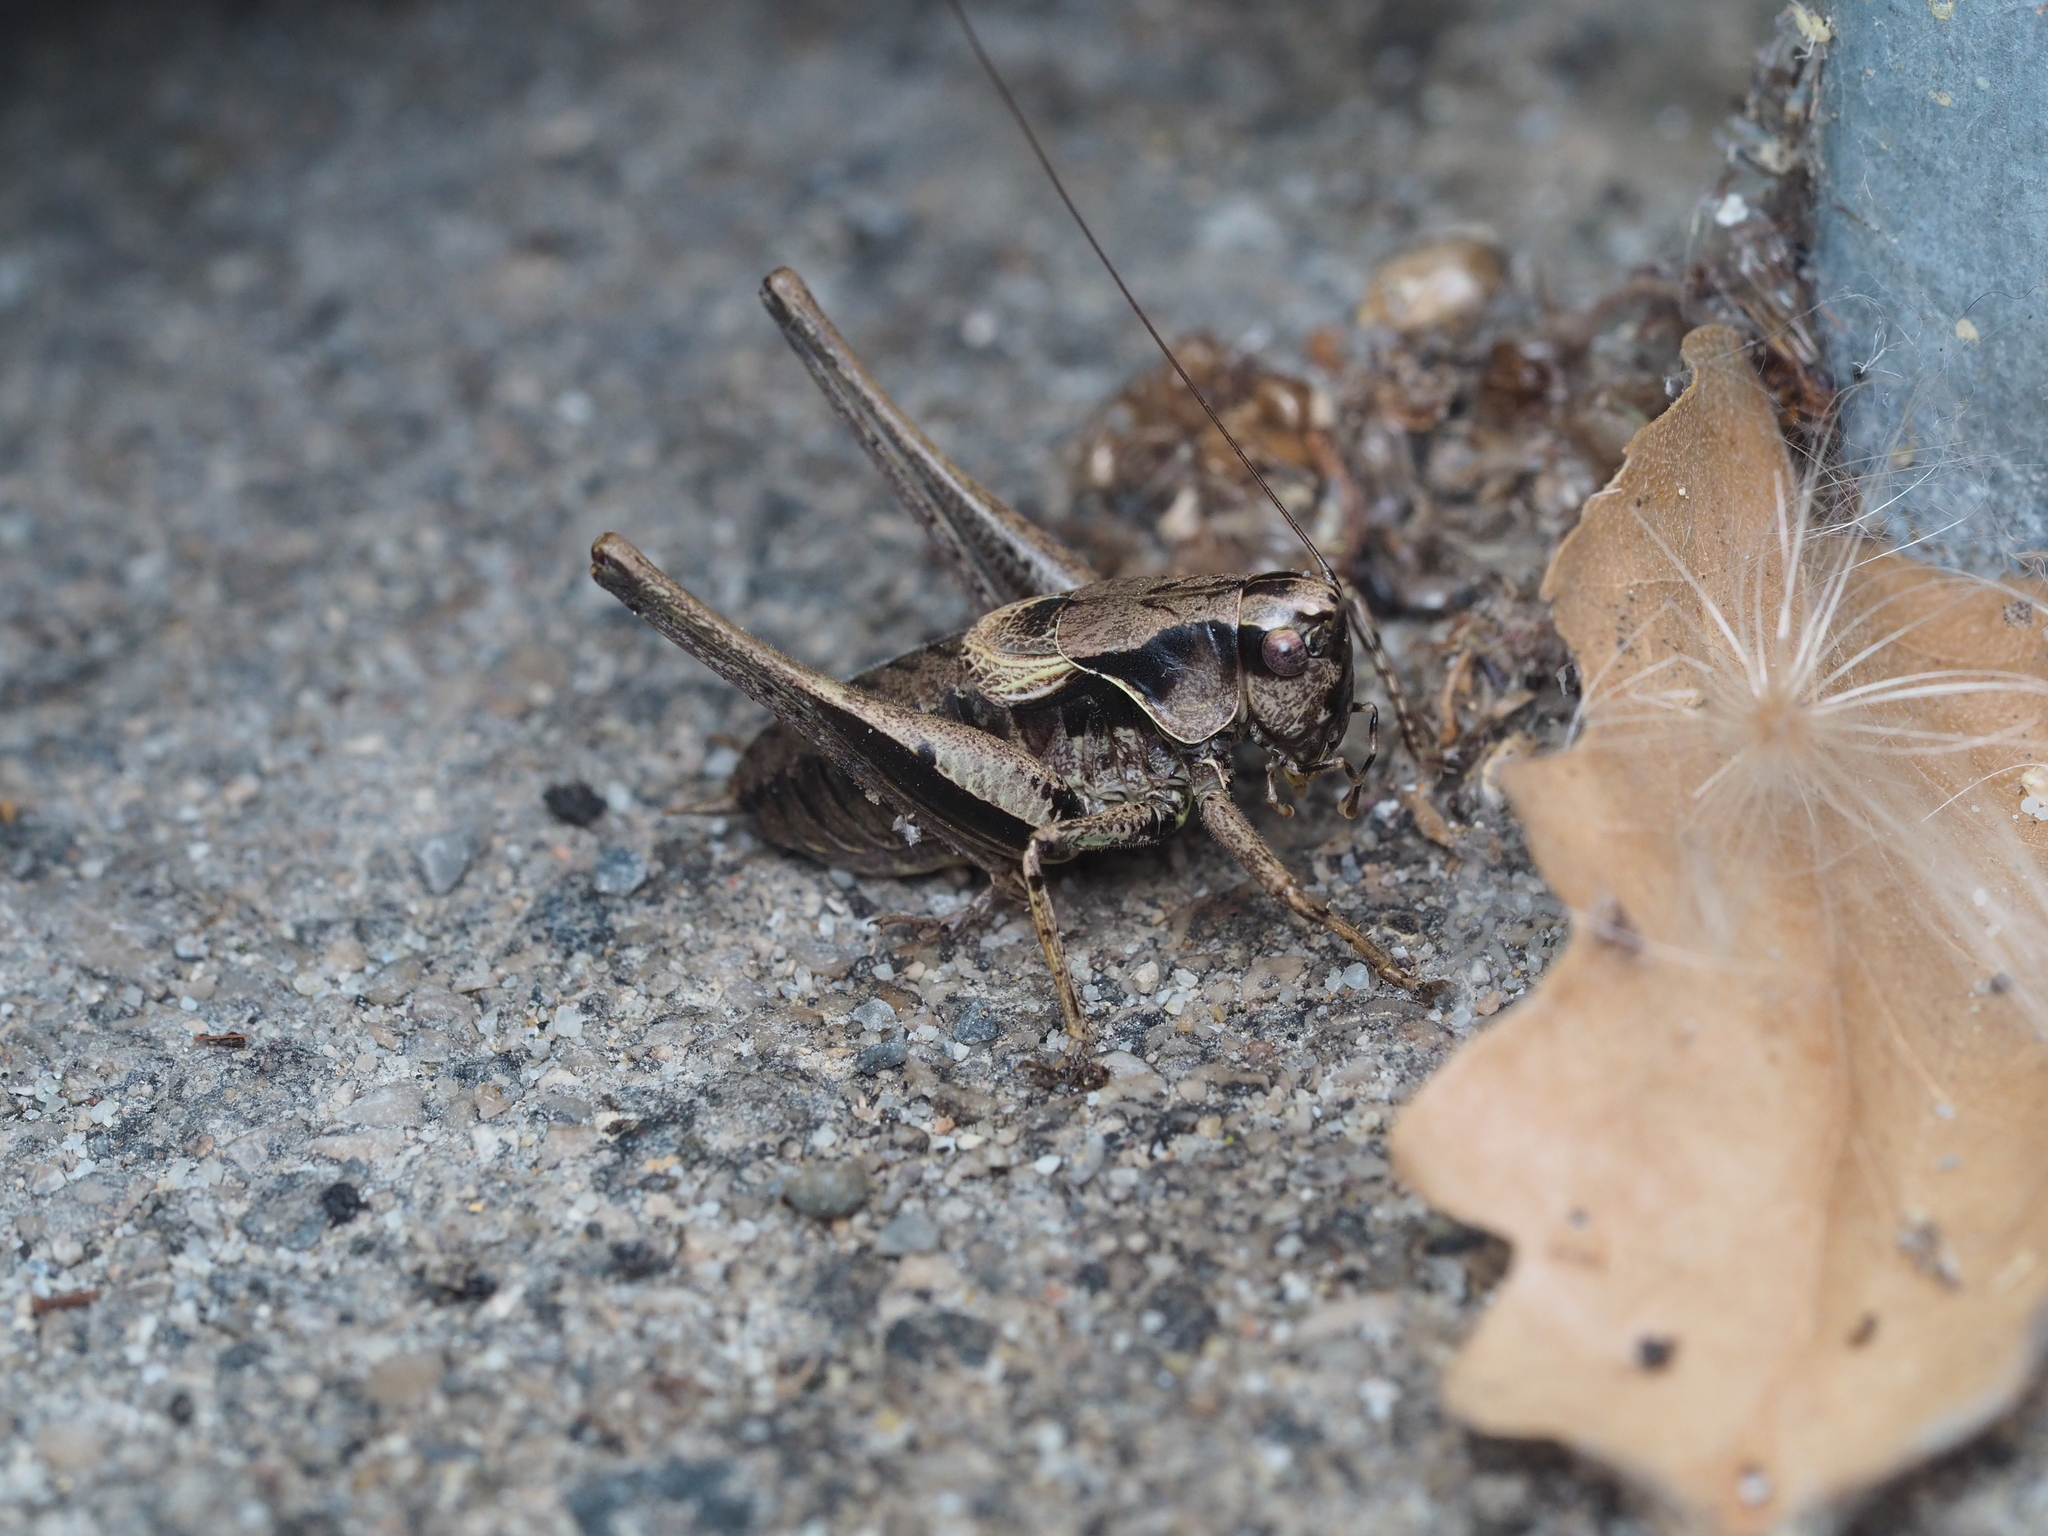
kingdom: Animalia
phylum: Arthropoda
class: Insecta
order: Orthoptera
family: Tettigoniidae
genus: Pholidoptera
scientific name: Pholidoptera griseoaptera
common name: Dark bush-cricket
